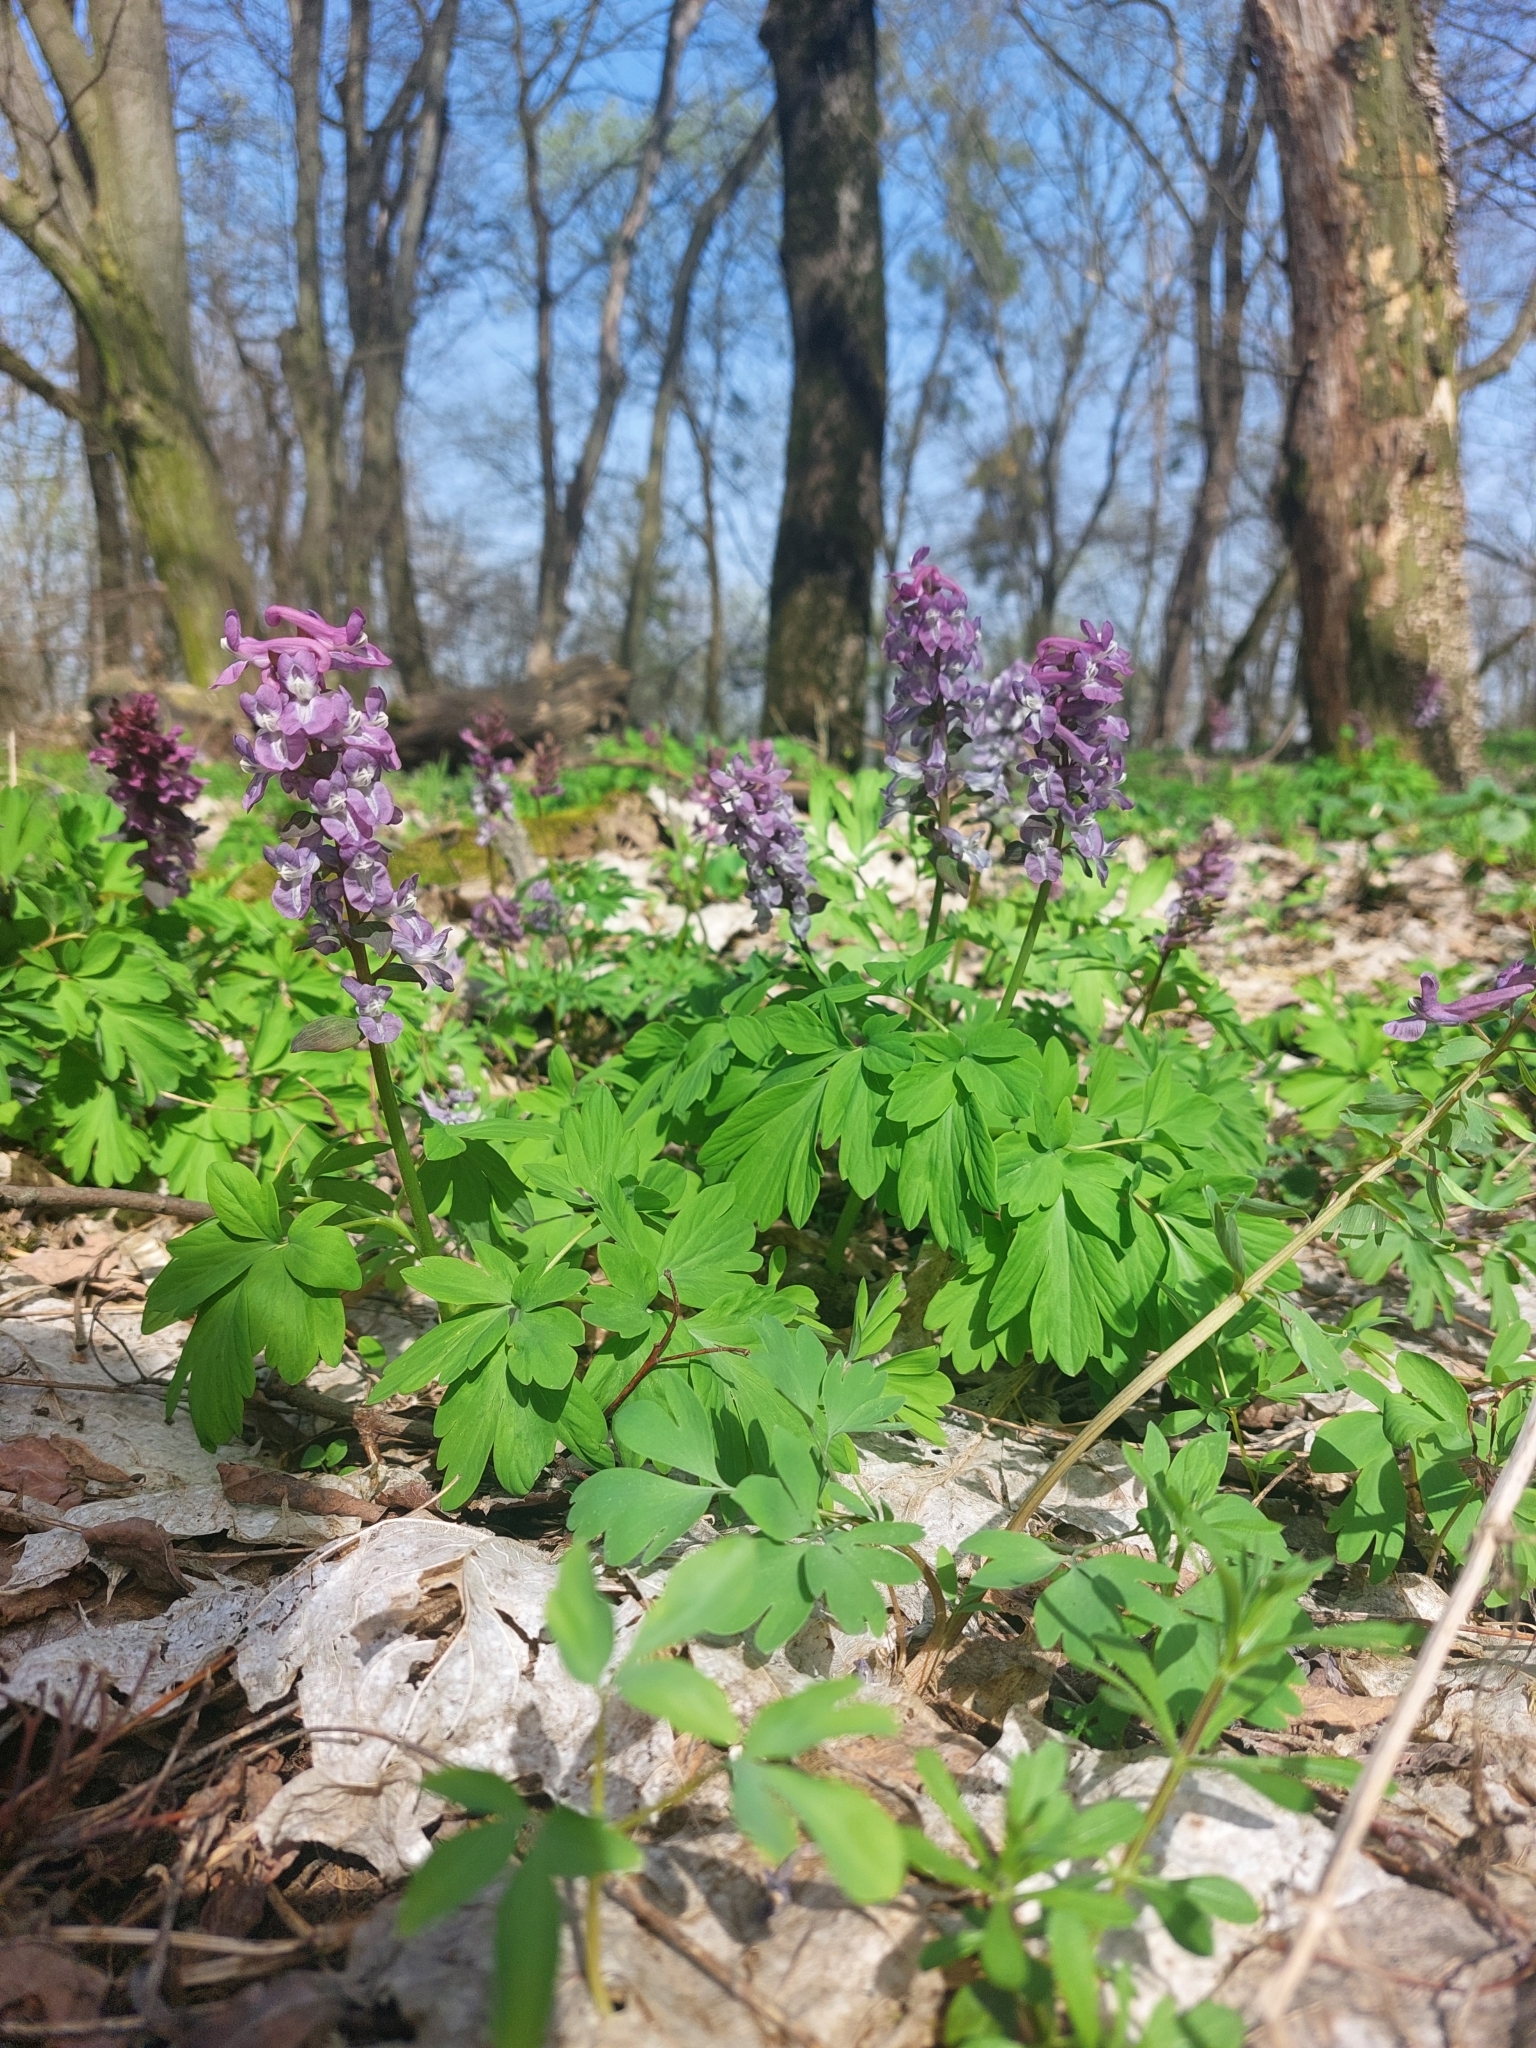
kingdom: Plantae
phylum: Tracheophyta
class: Magnoliopsida
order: Ranunculales
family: Papaveraceae
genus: Corydalis
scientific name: Corydalis cava
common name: Hollowroot
